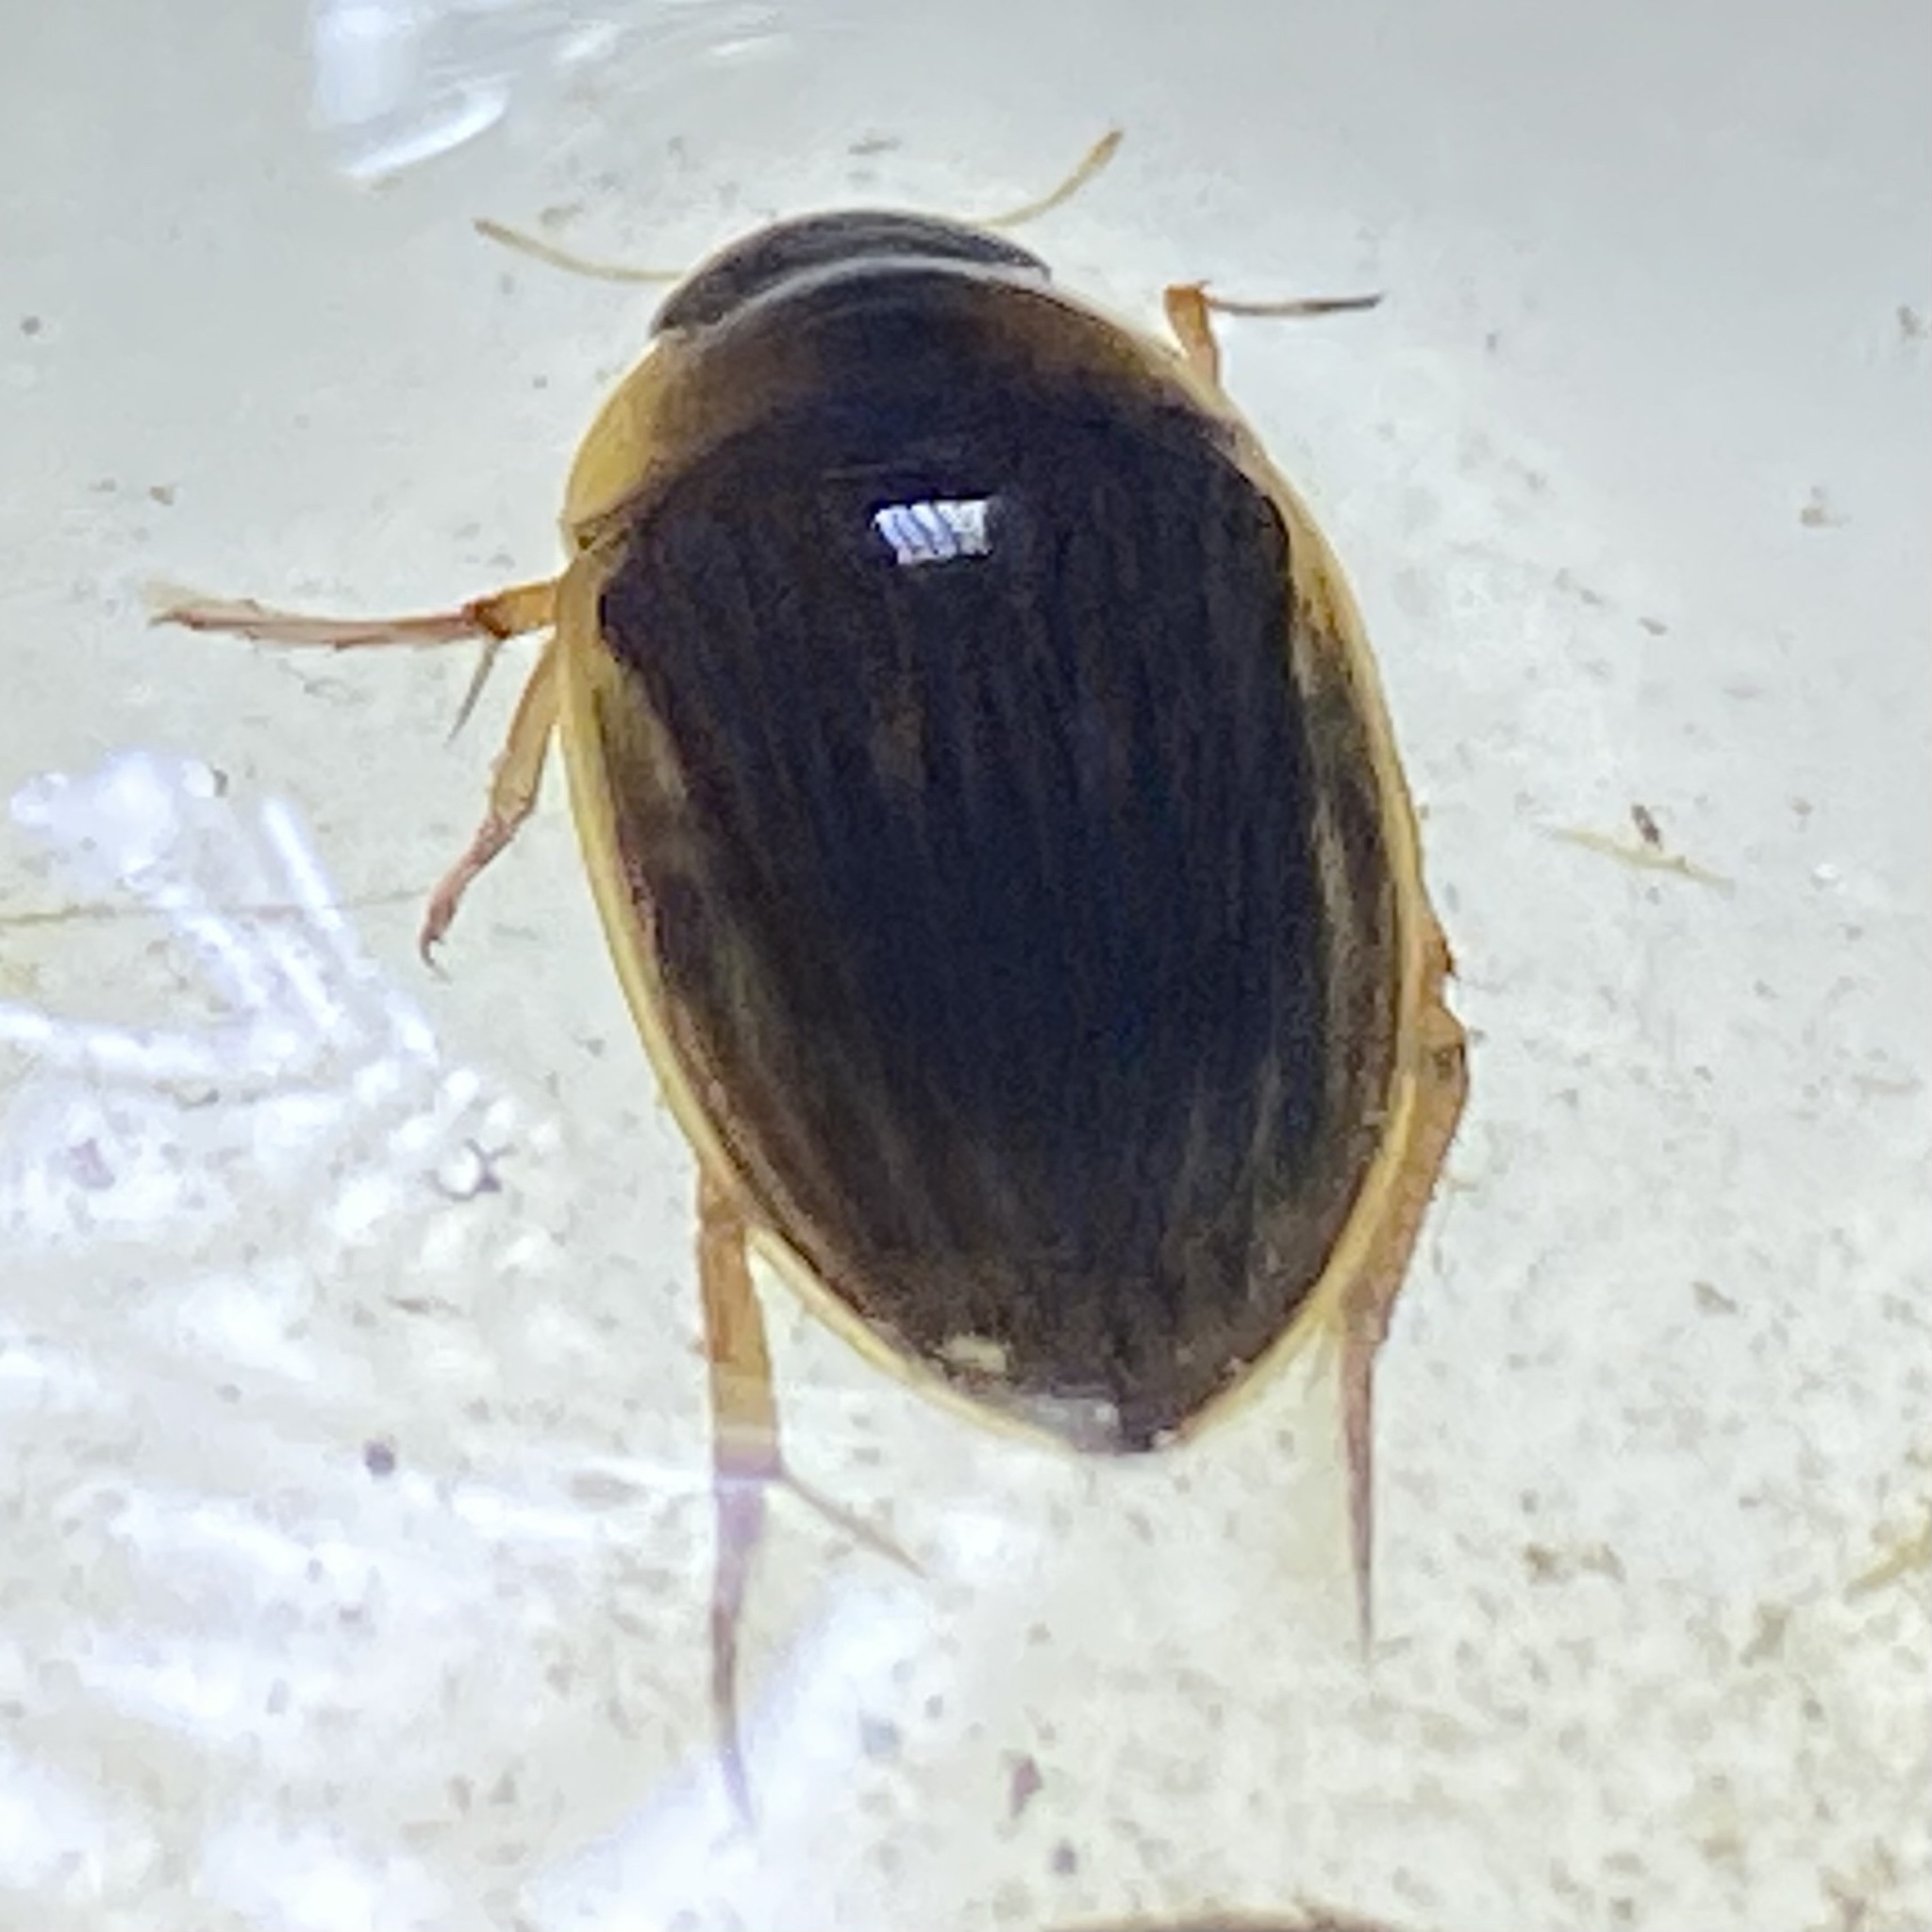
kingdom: Animalia
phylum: Arthropoda
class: Insecta
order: Coleoptera
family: Hydrophilidae
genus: Tropisternus
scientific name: Tropisternus collaris
